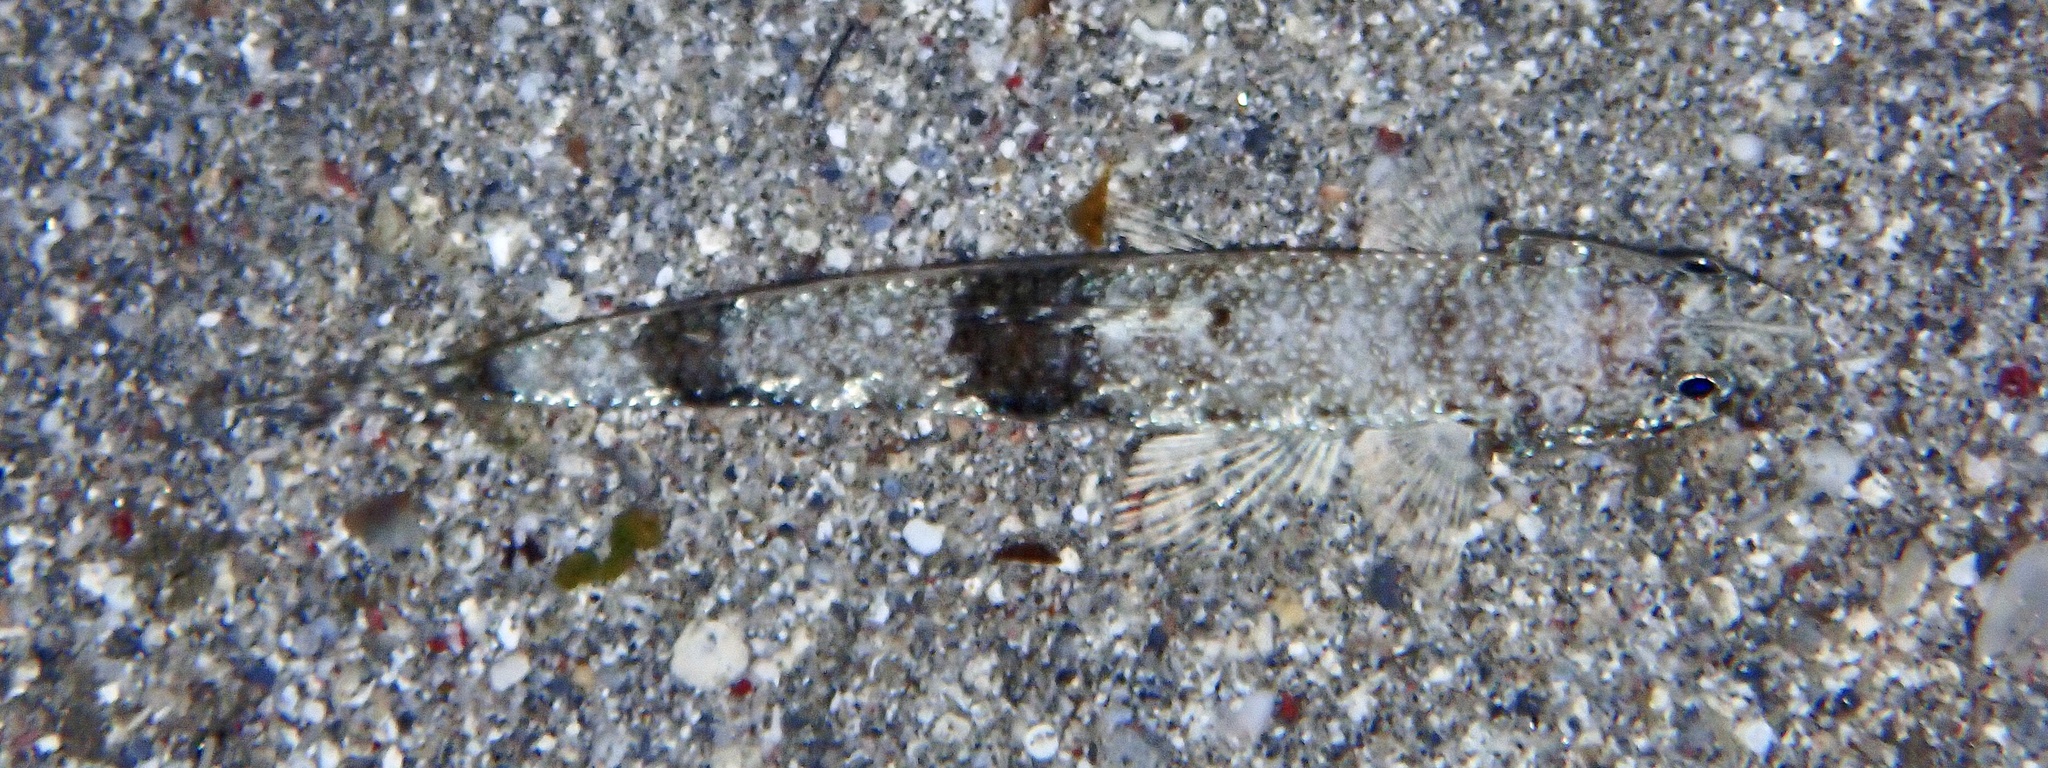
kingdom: Animalia
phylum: Chordata
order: Aulopiformes
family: Synodontidae
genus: Saurida
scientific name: Saurida gracilis
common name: Slender lizardfish
